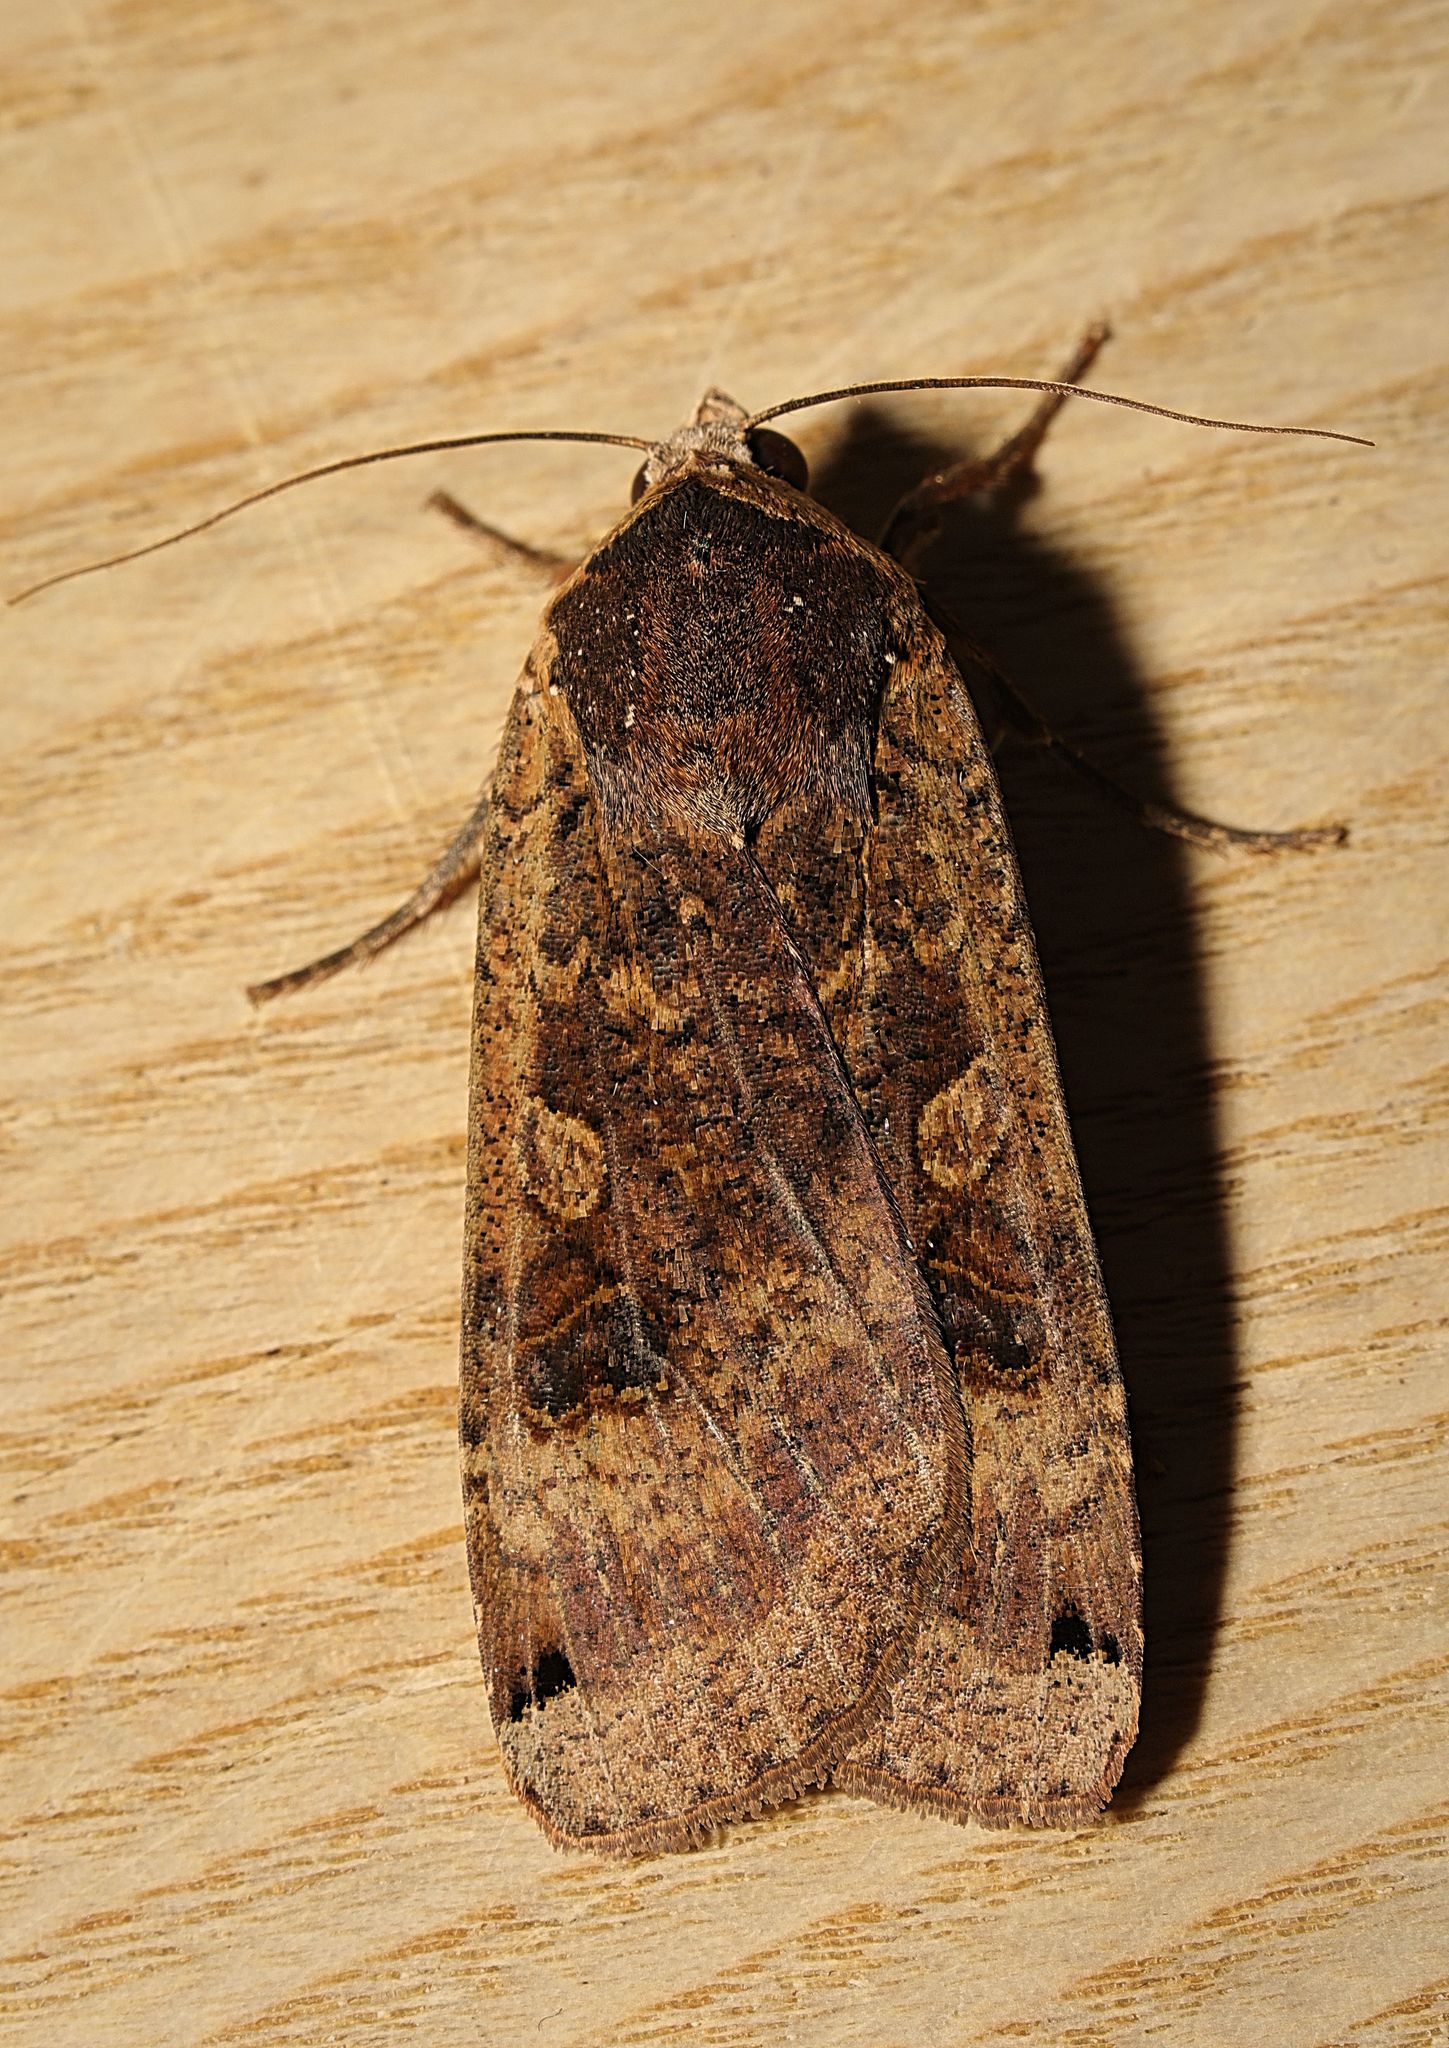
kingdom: Animalia
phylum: Arthropoda
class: Insecta
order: Lepidoptera
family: Noctuidae
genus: Noctua
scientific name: Noctua pronuba
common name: Large yellow underwing
